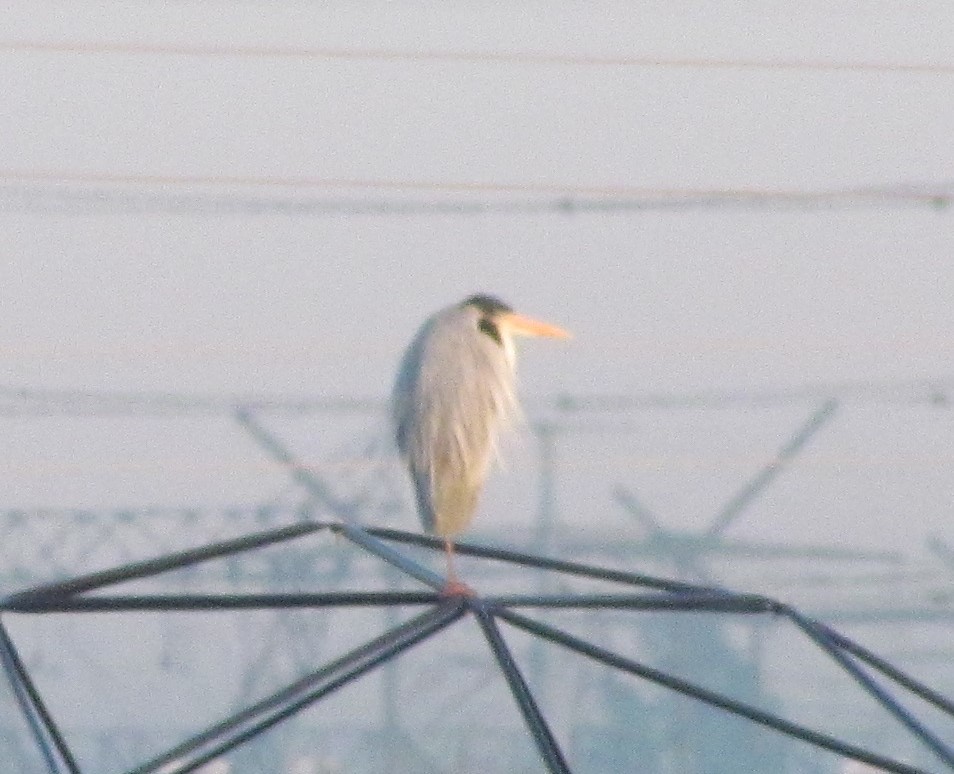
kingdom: Animalia
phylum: Chordata
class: Aves
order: Pelecaniformes
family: Ardeidae
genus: Ardea
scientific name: Ardea cocoi
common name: Cocoi heron
